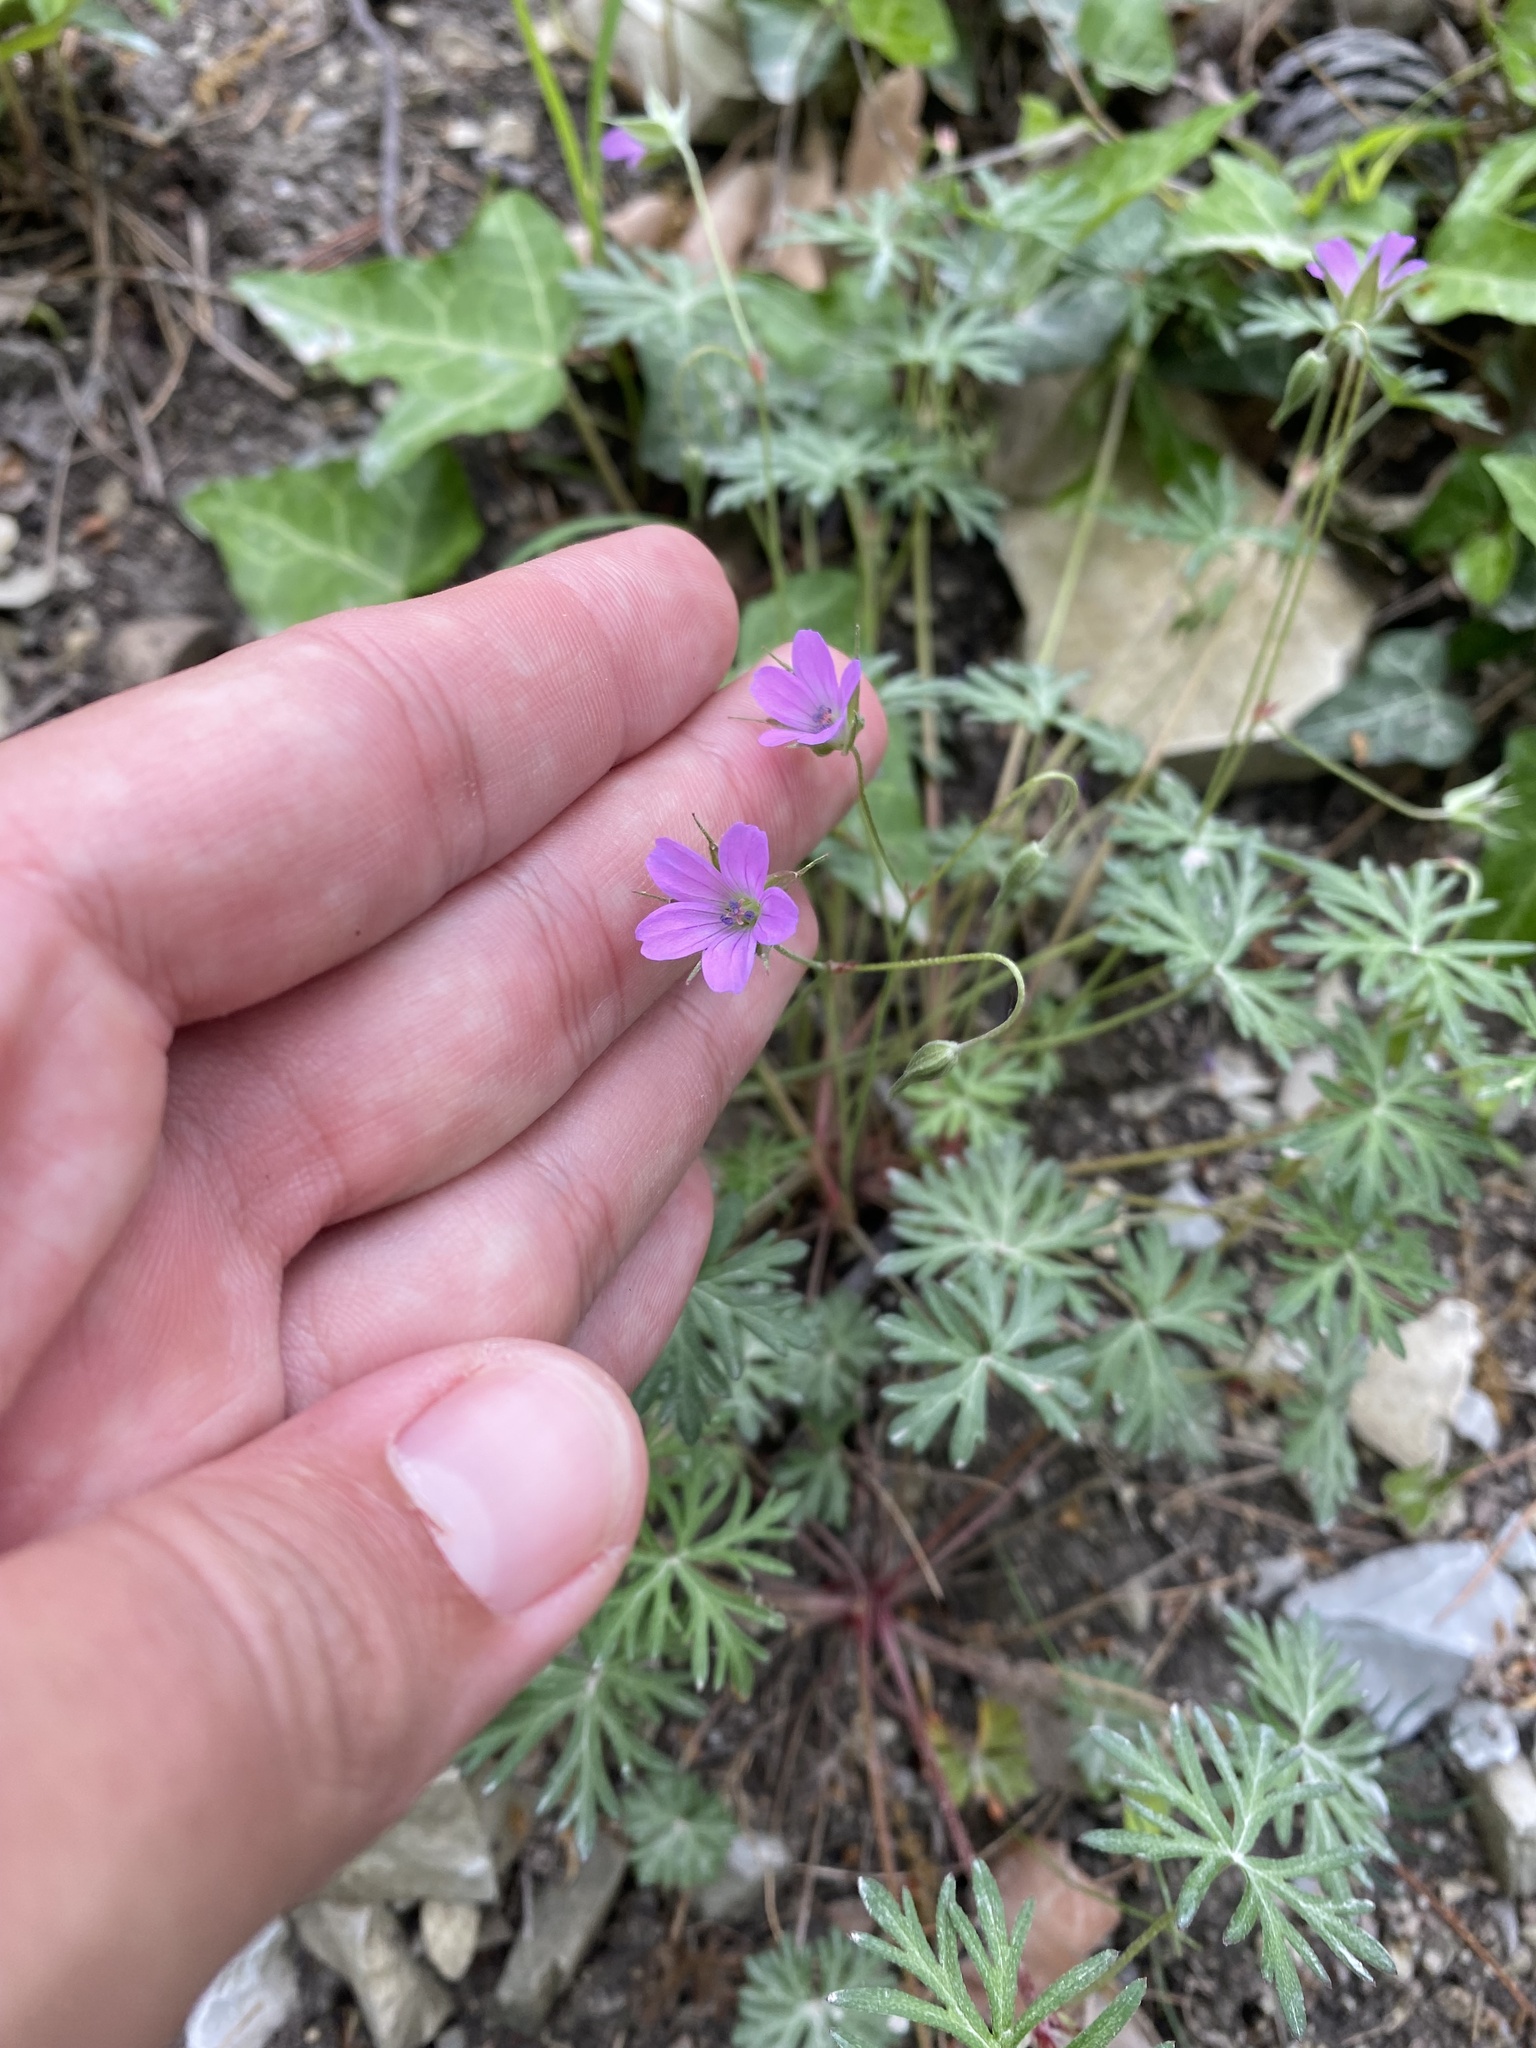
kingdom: Plantae
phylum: Tracheophyta
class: Magnoliopsida
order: Geraniales
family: Geraniaceae
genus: Geranium
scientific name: Geranium columbinum
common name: Long-stalked crane's-bill
